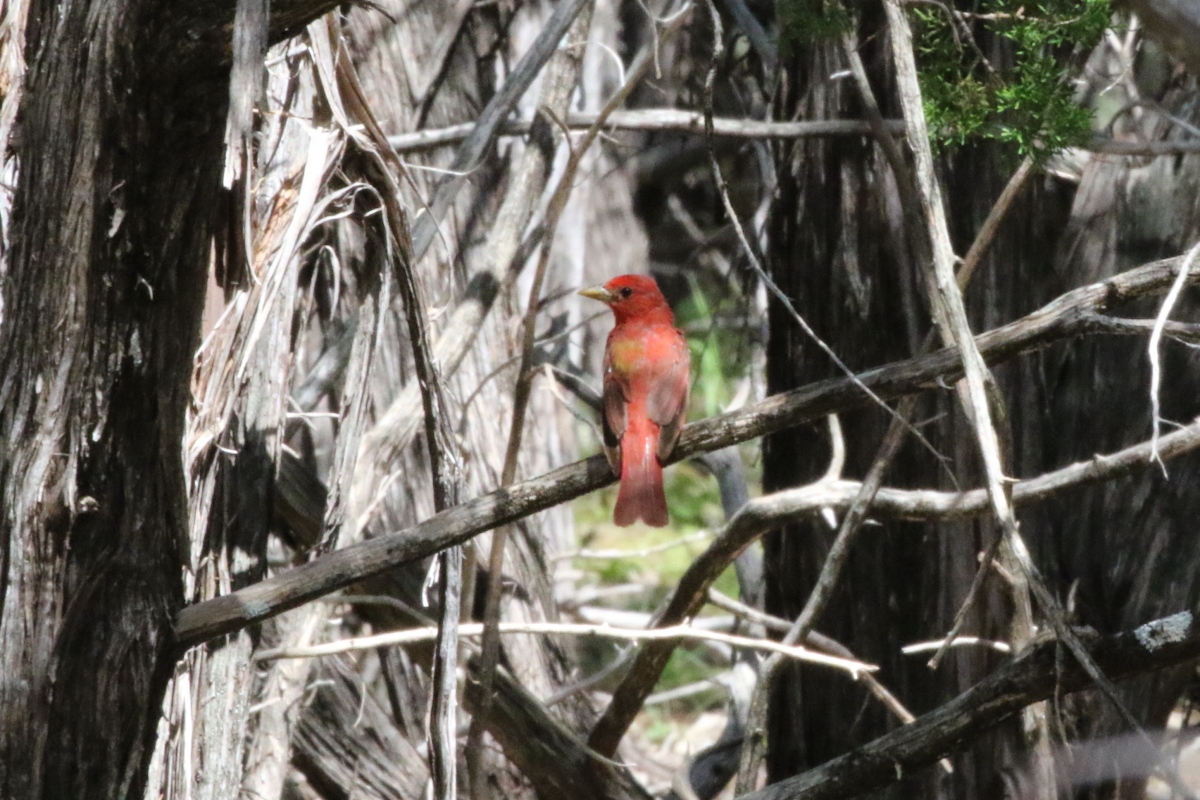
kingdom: Animalia
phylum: Chordata
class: Aves
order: Passeriformes
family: Cardinalidae
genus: Piranga
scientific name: Piranga rubra
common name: Summer tanager
